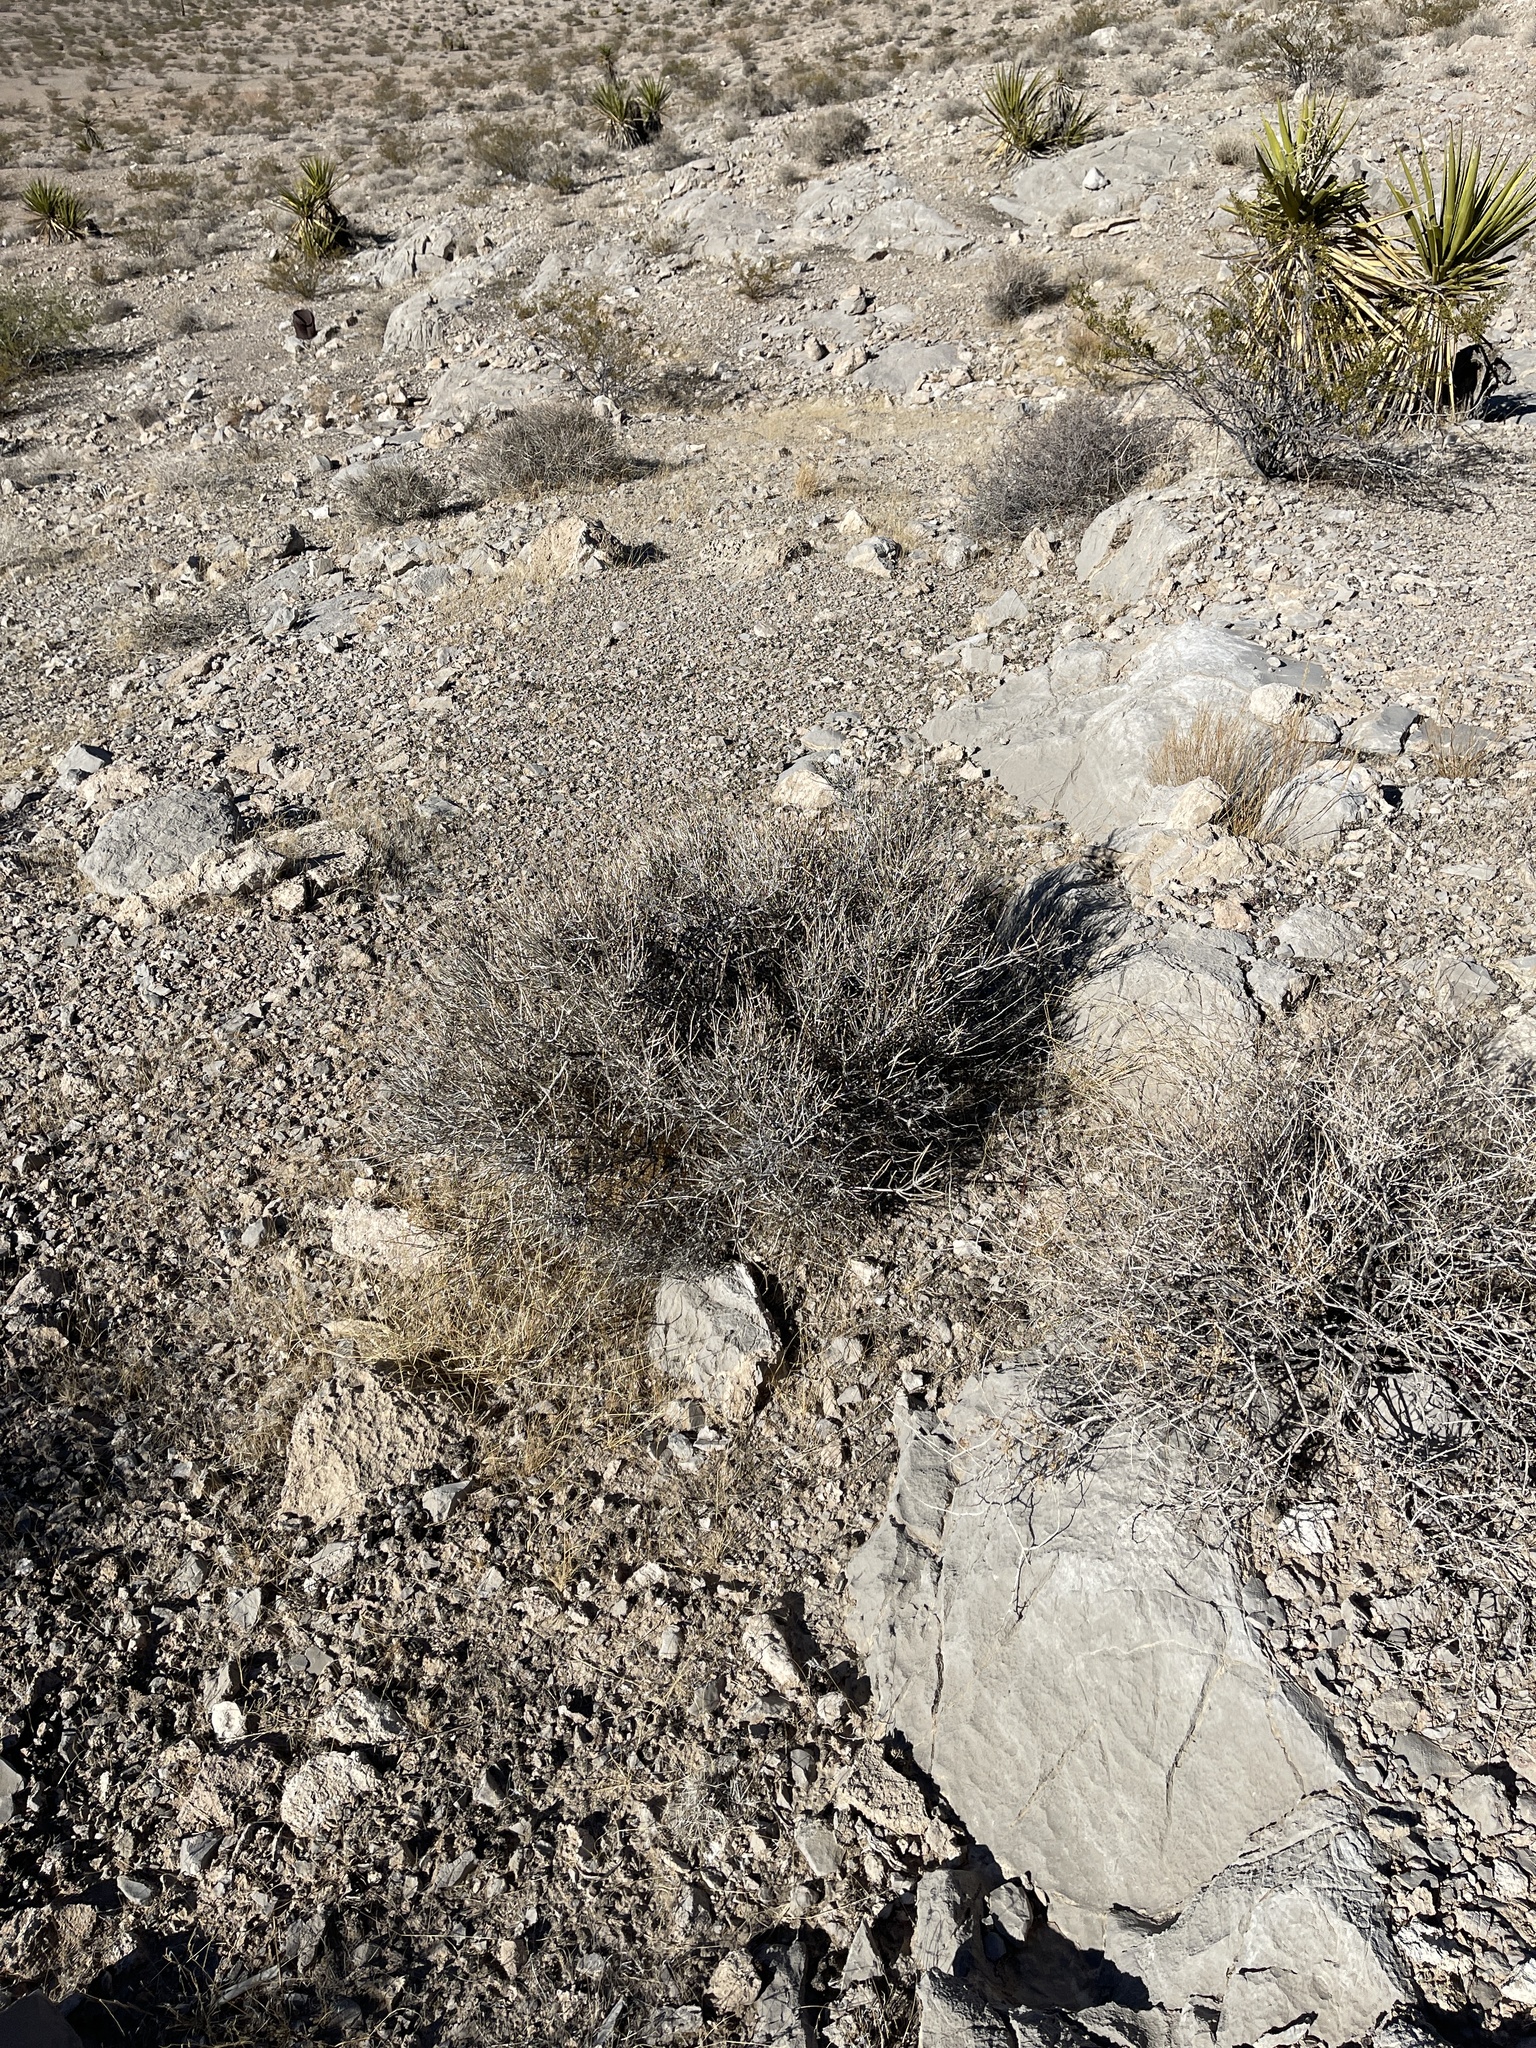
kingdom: Plantae
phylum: Tracheophyta
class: Gnetopsida
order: Ephedrales
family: Ephedraceae
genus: Ephedra
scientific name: Ephedra nevadensis
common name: Gray ephedra
